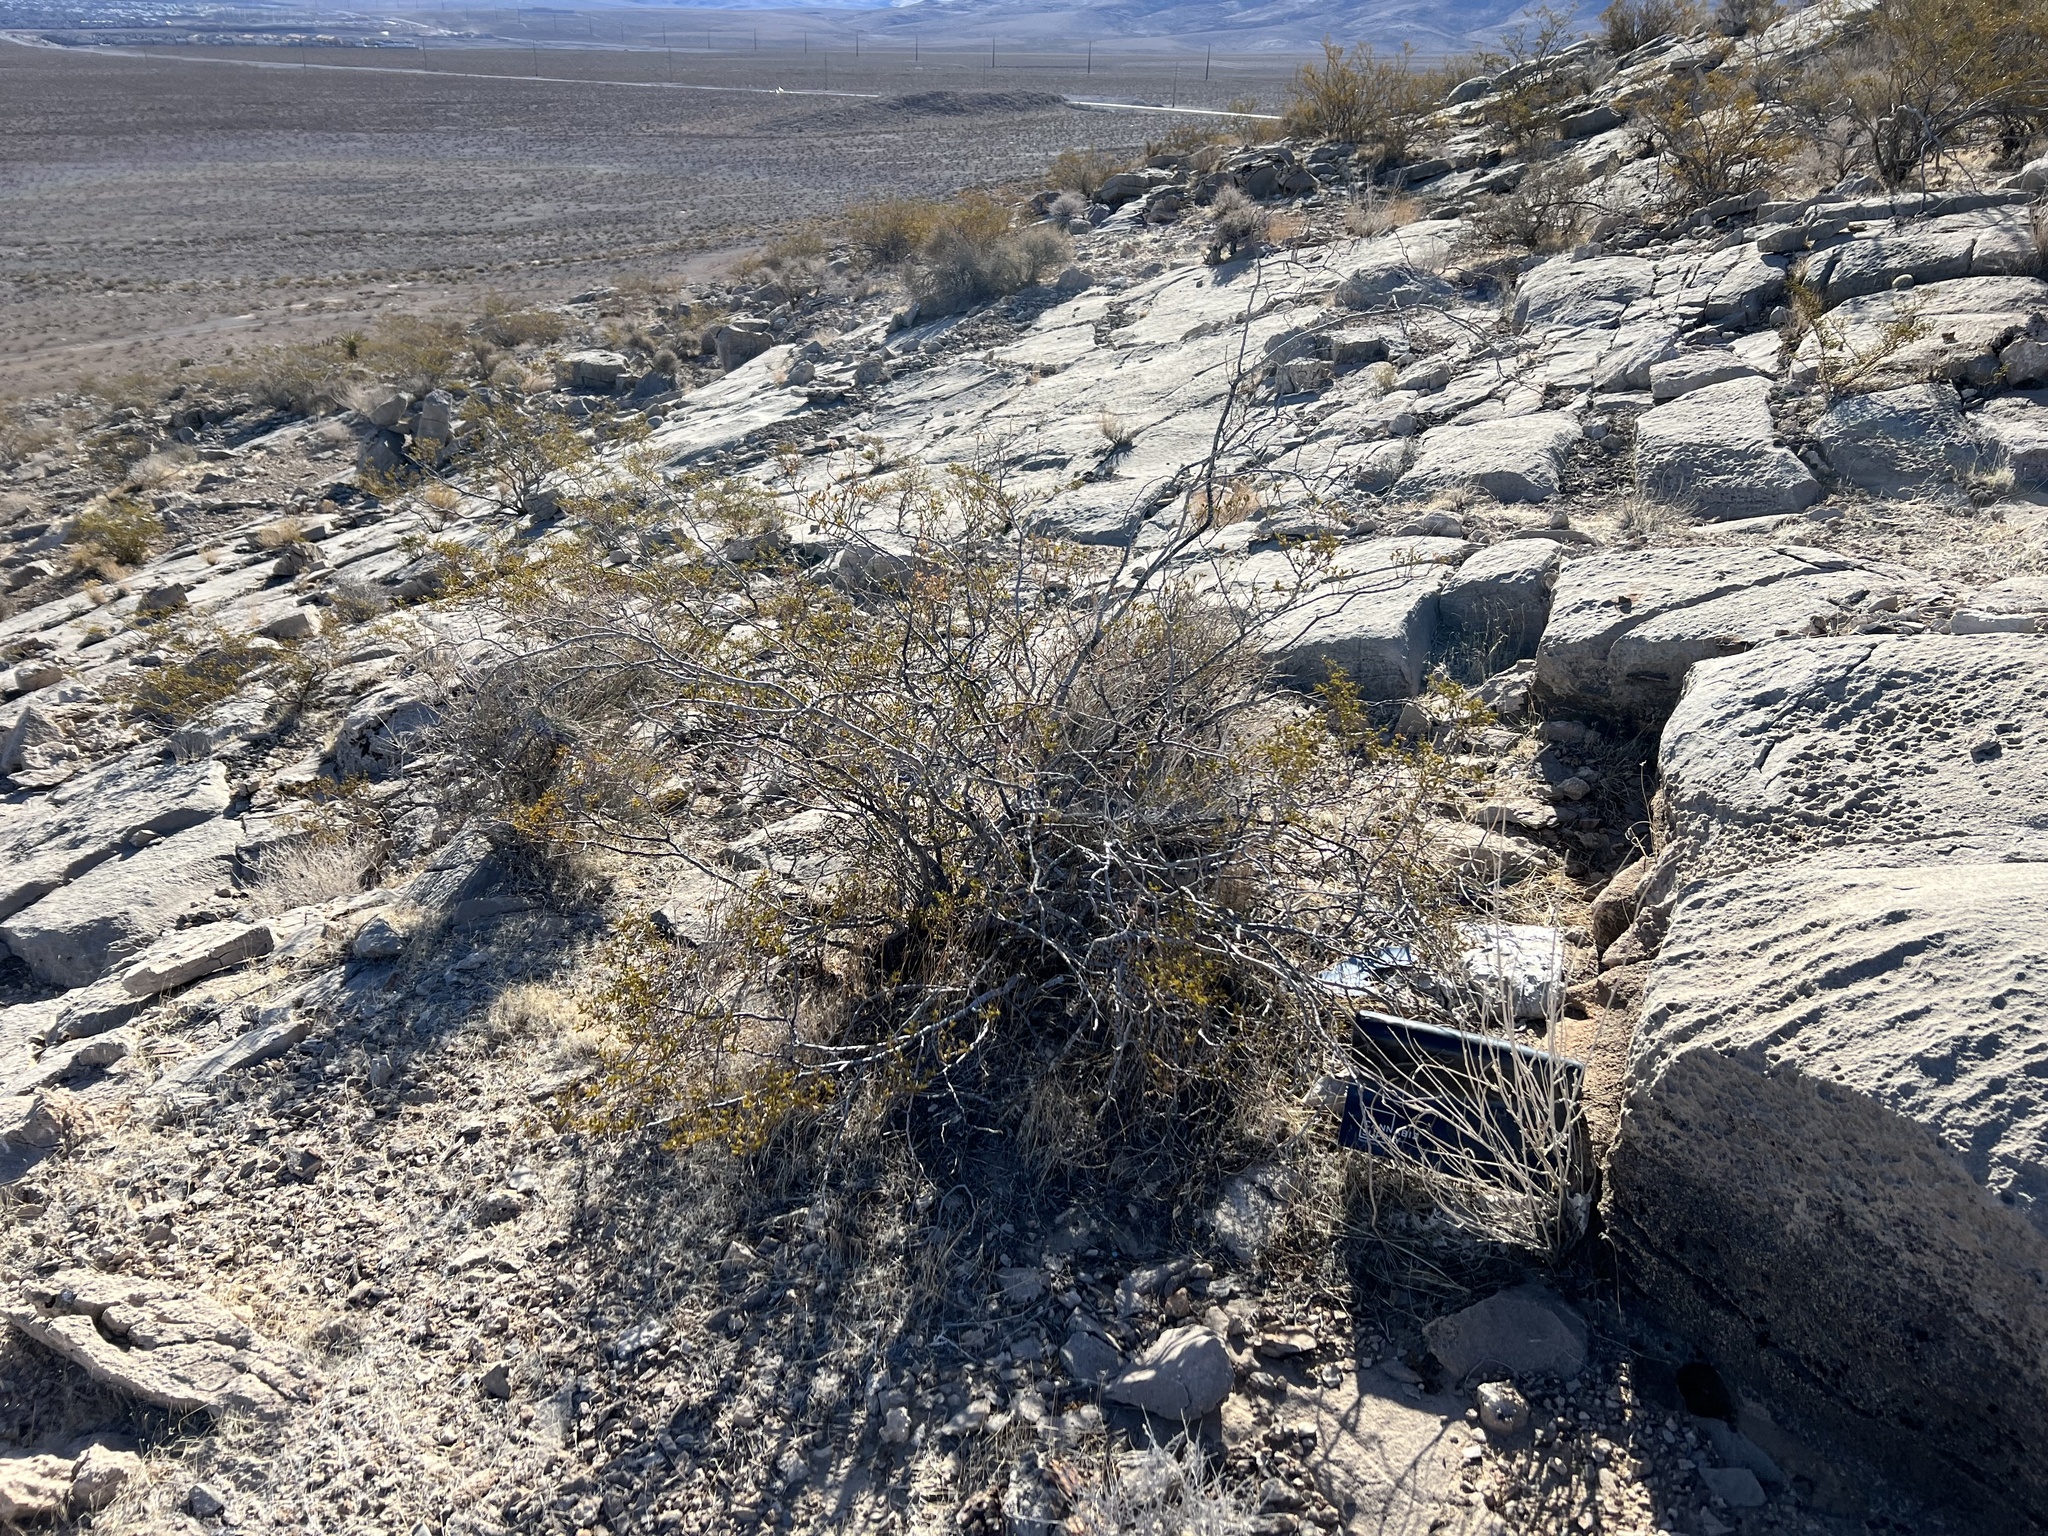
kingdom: Plantae
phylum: Tracheophyta
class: Magnoliopsida
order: Zygophyllales
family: Zygophyllaceae
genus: Larrea
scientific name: Larrea tridentata
